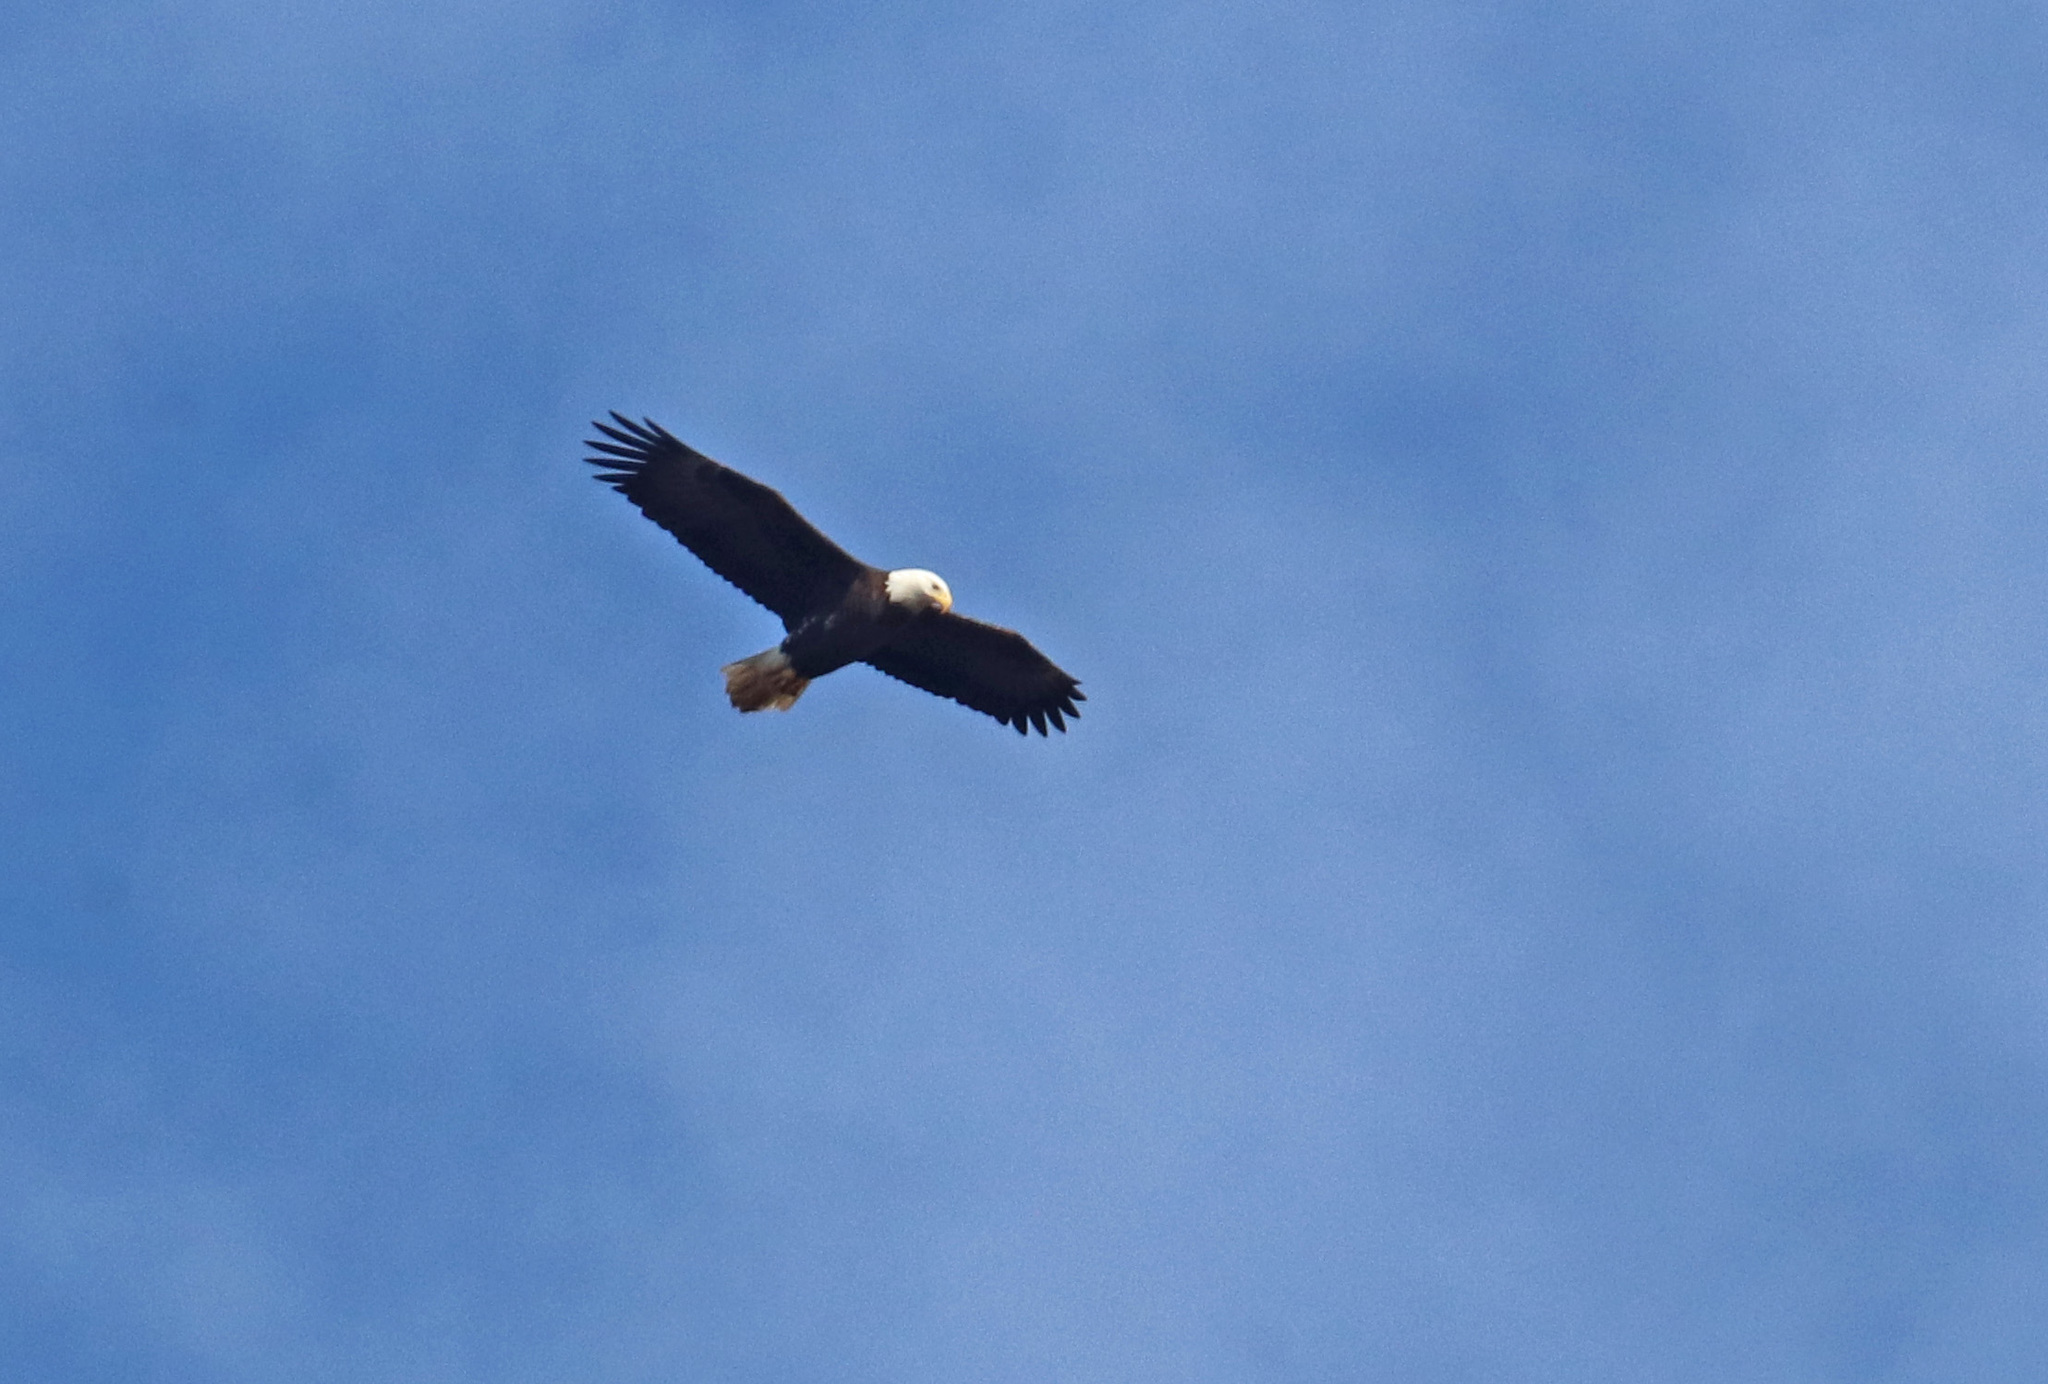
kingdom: Animalia
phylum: Chordata
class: Aves
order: Accipitriformes
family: Accipitridae
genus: Haliaeetus
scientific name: Haliaeetus leucocephalus
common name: Bald eagle
